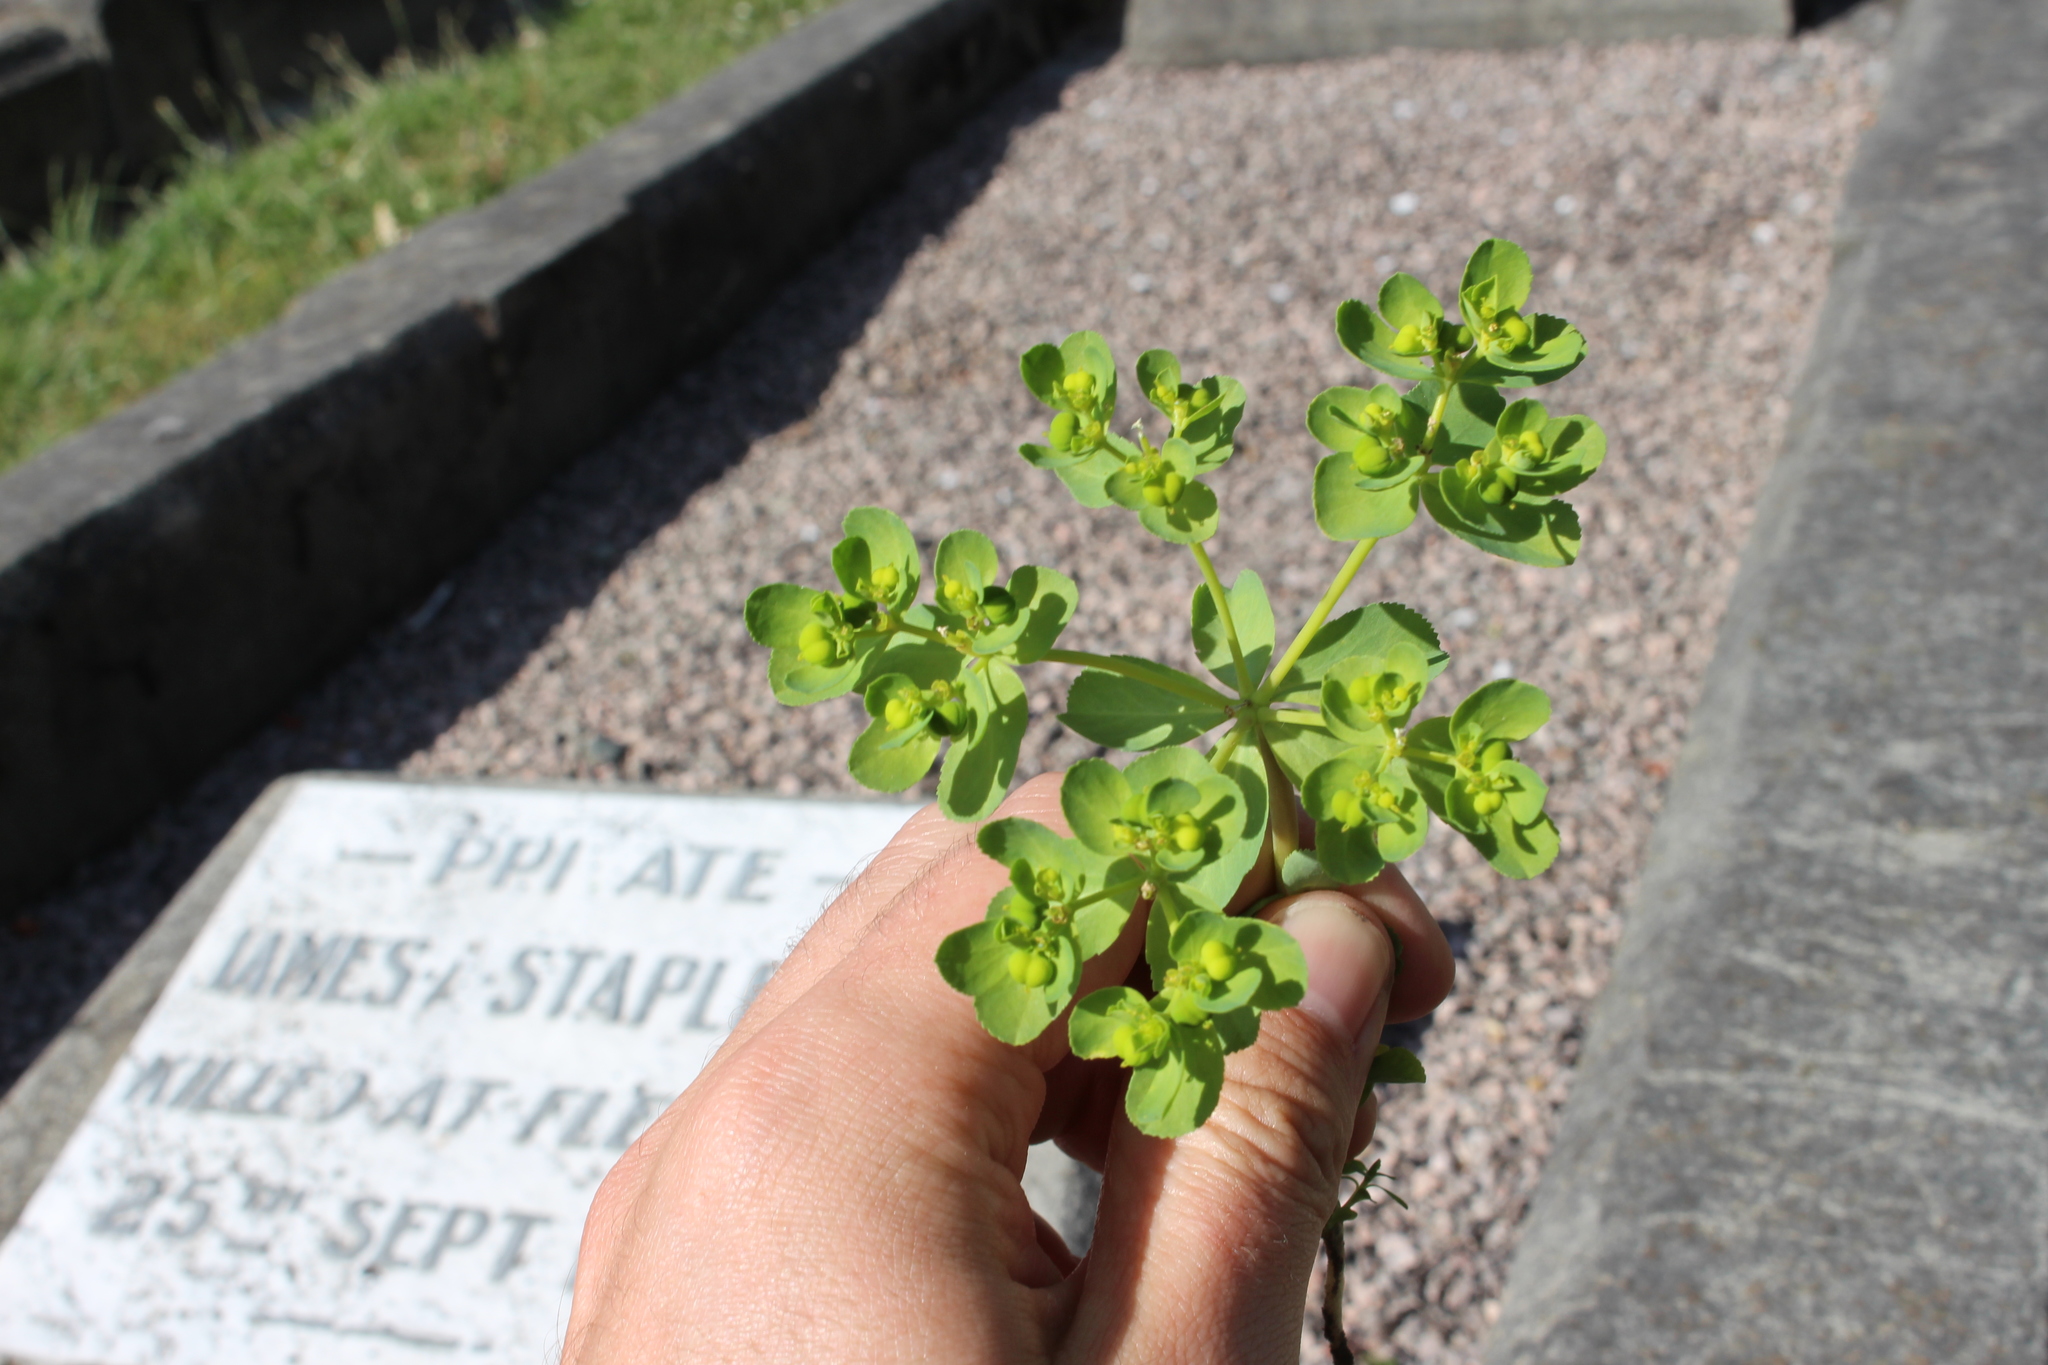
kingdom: Plantae
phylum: Tracheophyta
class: Magnoliopsida
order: Malpighiales
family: Euphorbiaceae
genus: Euphorbia
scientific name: Euphorbia helioscopia
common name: Sun spurge
